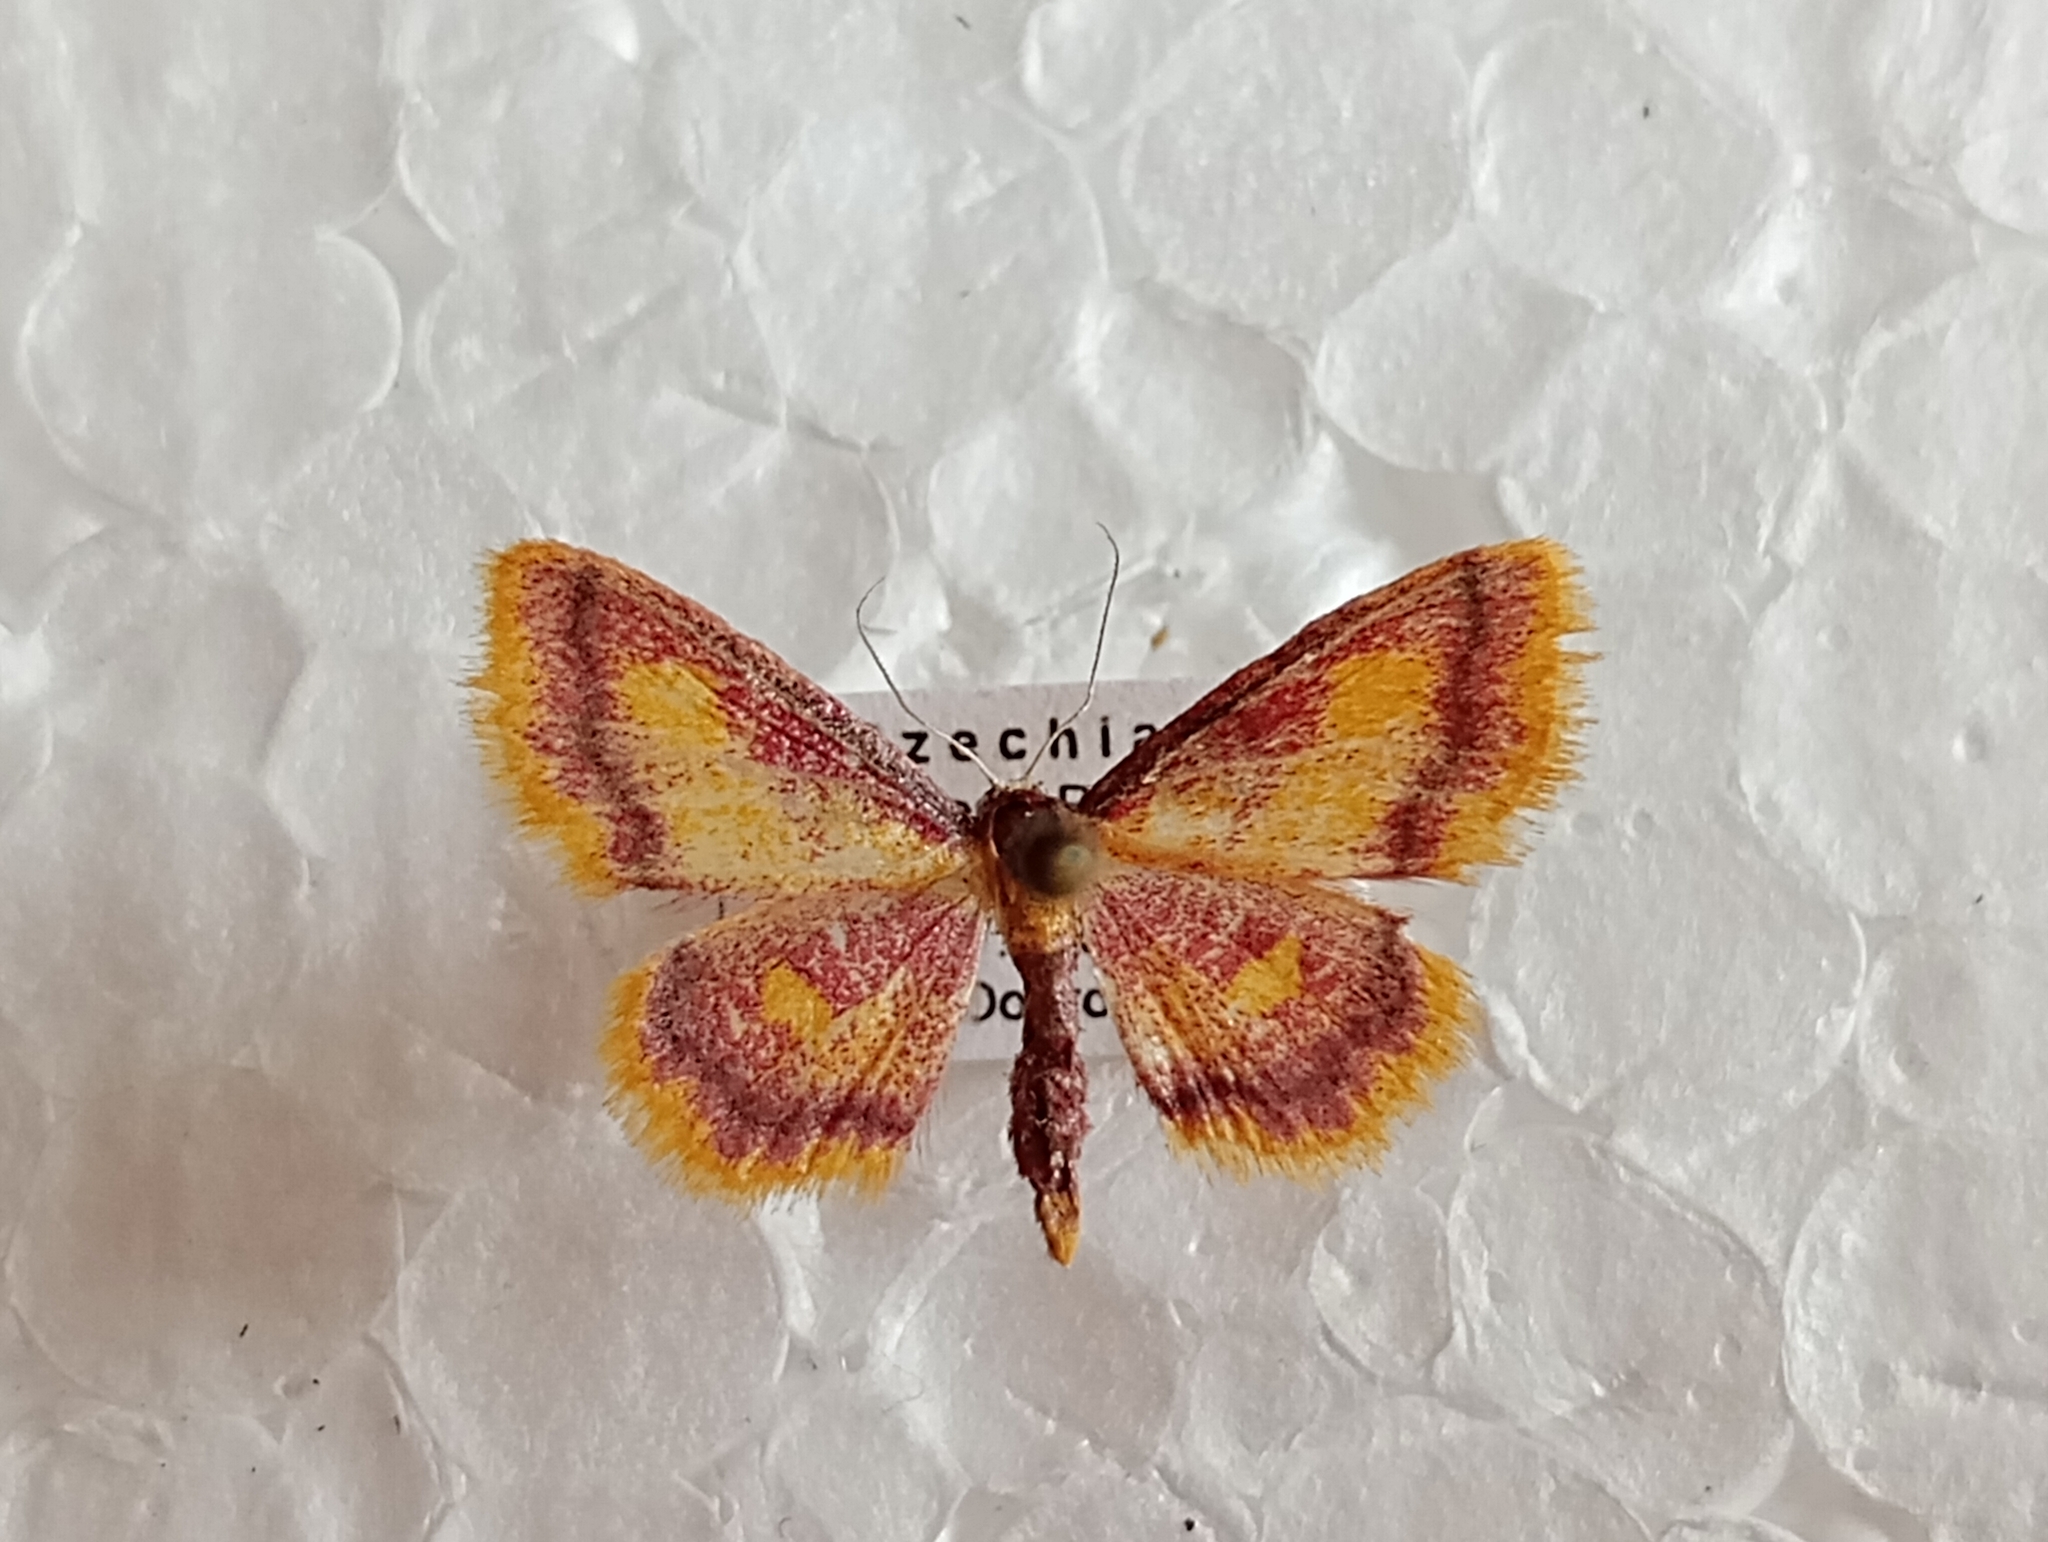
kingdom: Animalia
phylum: Arthropoda
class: Insecta
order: Lepidoptera
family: Geometridae
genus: Idaea
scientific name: Idaea muricata
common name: Purple-bordered gold
